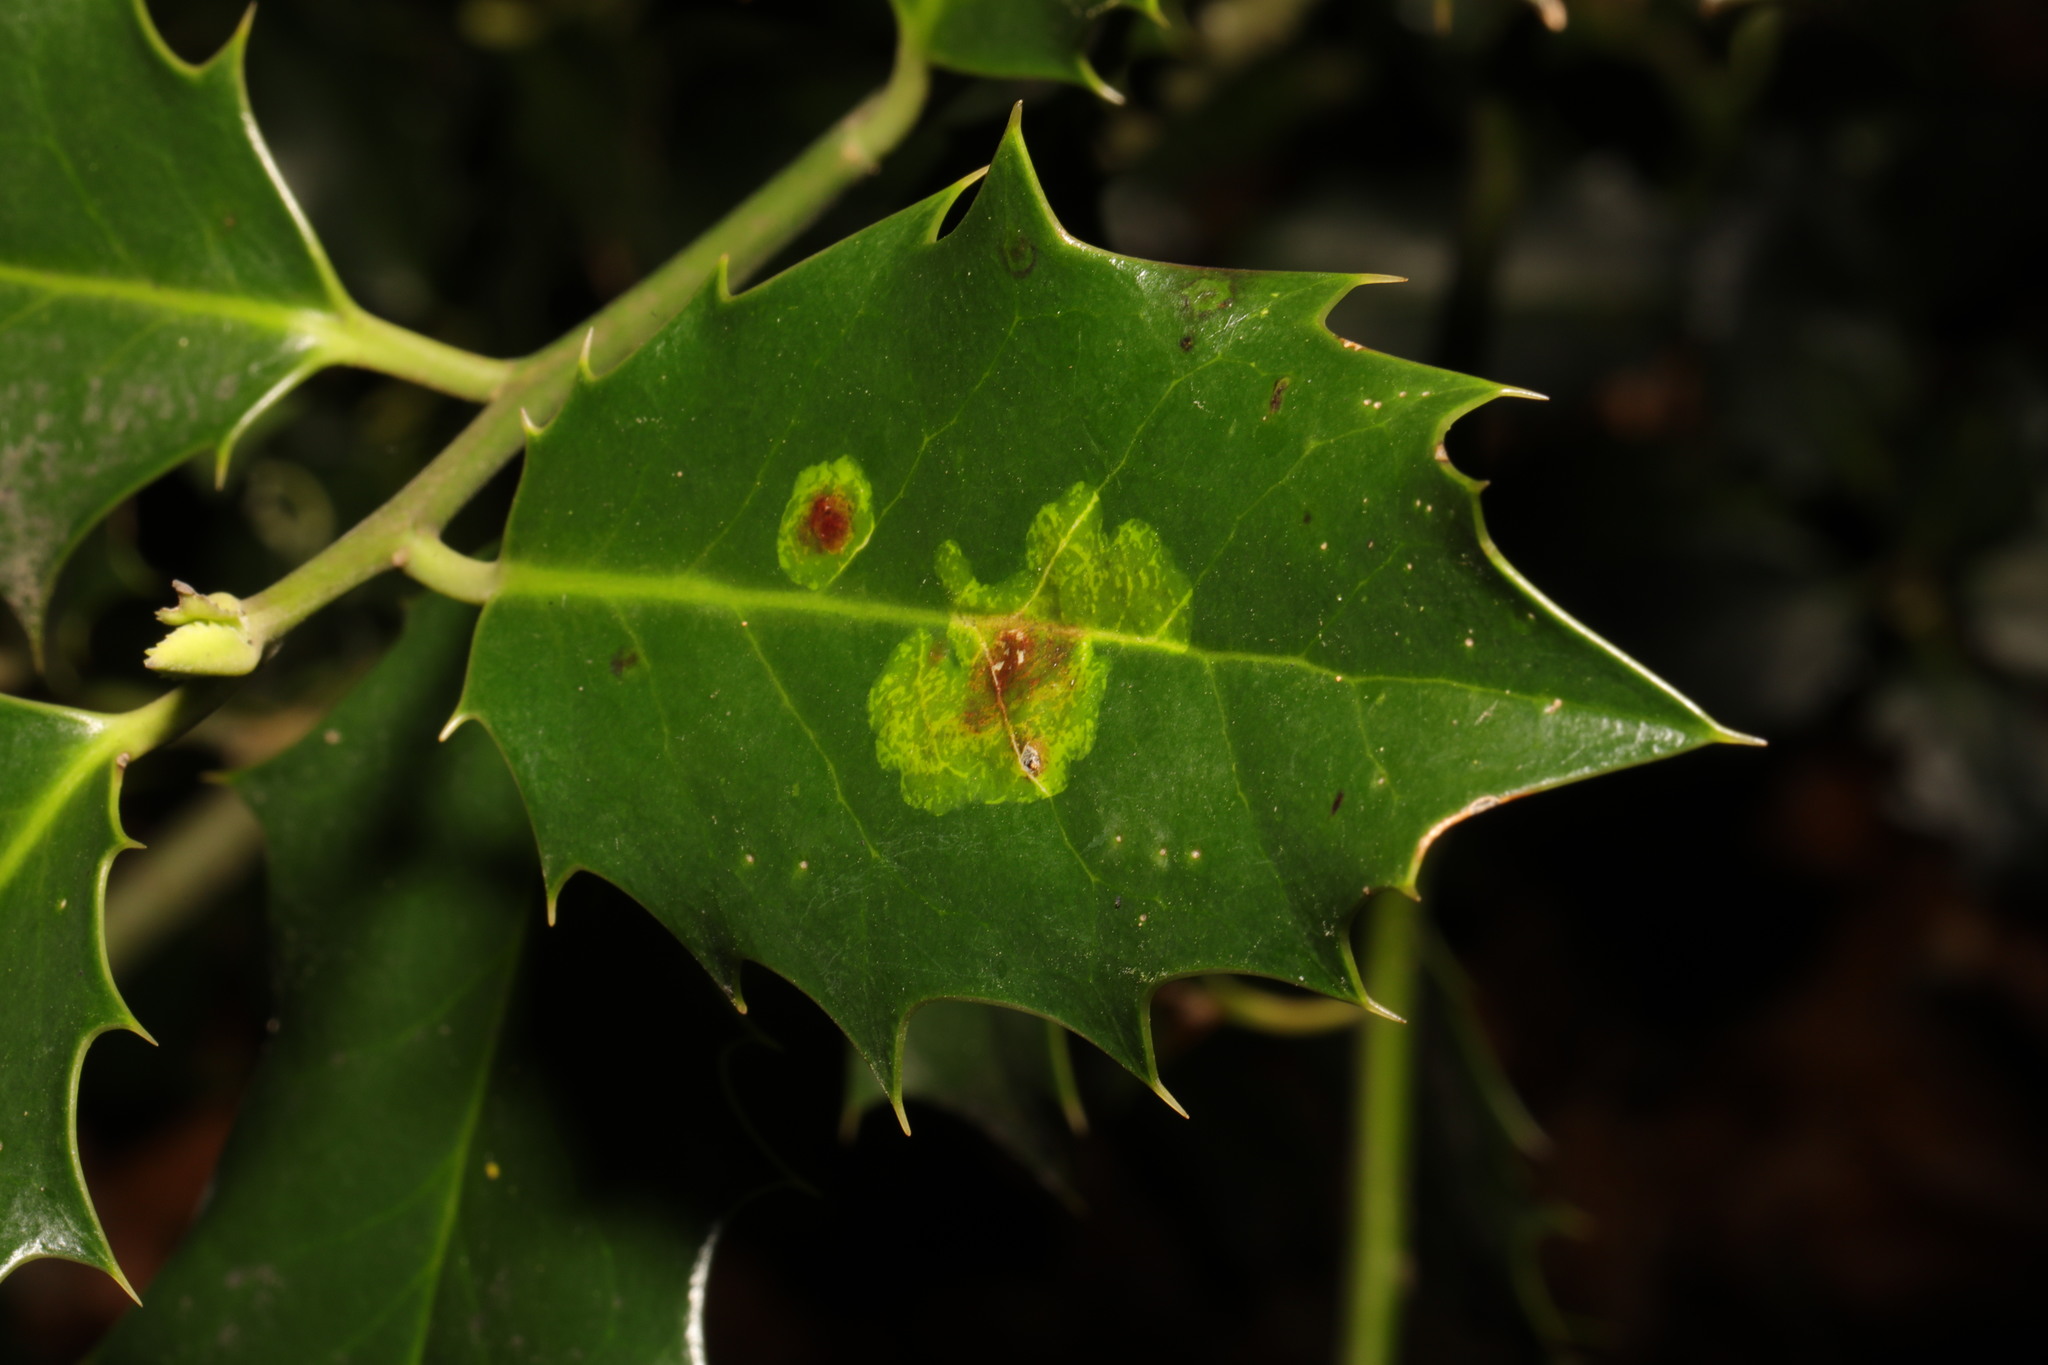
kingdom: Animalia
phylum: Arthropoda
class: Insecta
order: Diptera
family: Agromyzidae
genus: Phytomyza
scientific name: Phytomyza ilicis
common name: Holly leafminer
